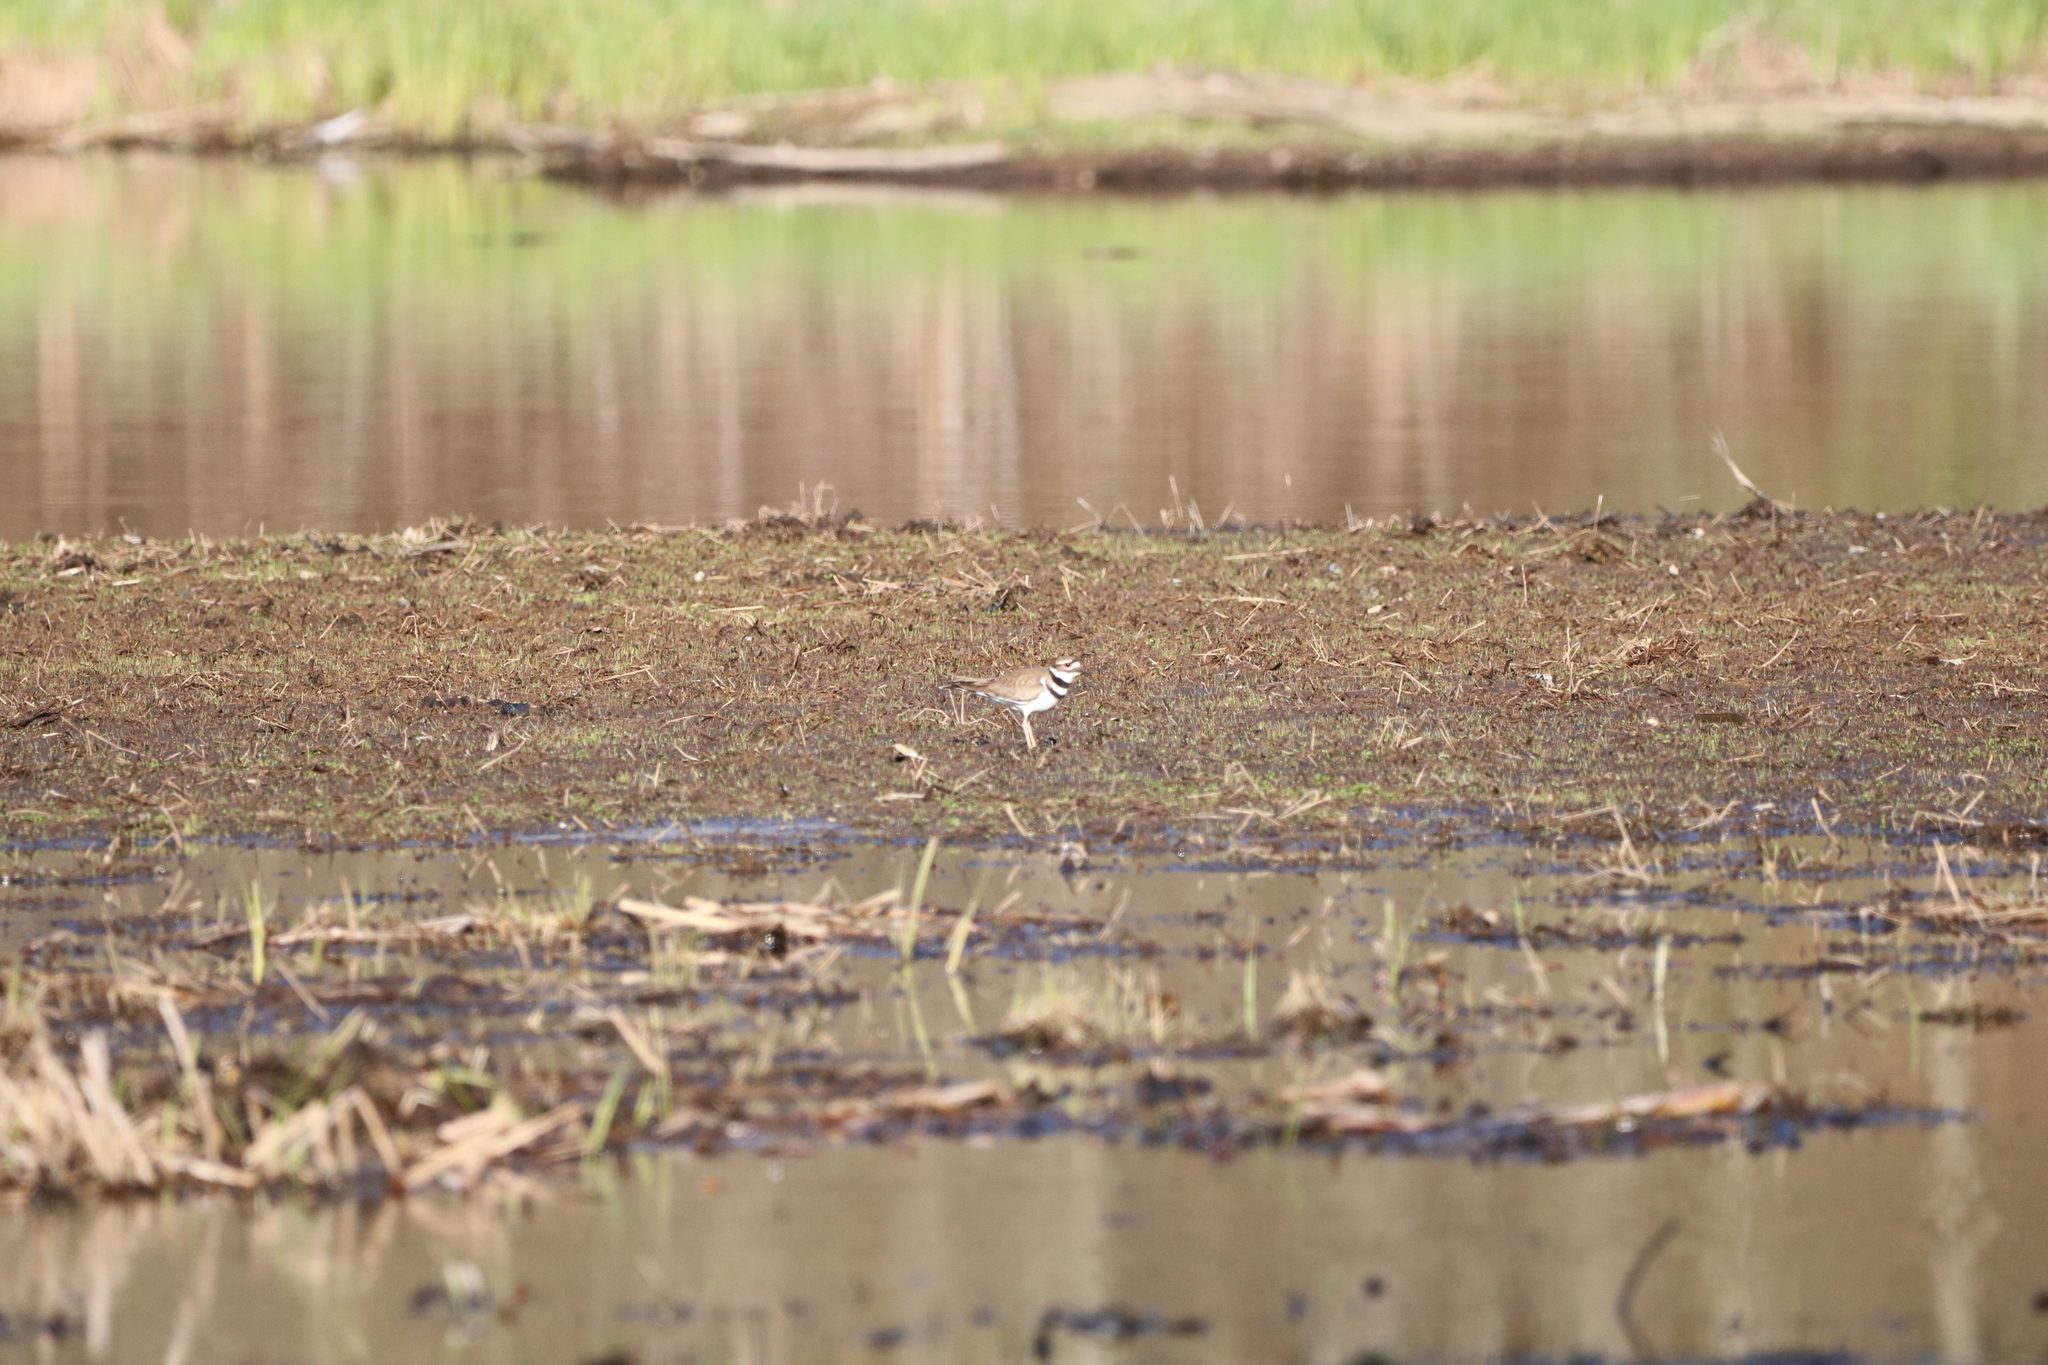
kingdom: Animalia
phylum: Chordata
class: Aves
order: Charadriiformes
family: Charadriidae
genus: Charadrius
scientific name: Charadrius vociferus
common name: Killdeer
